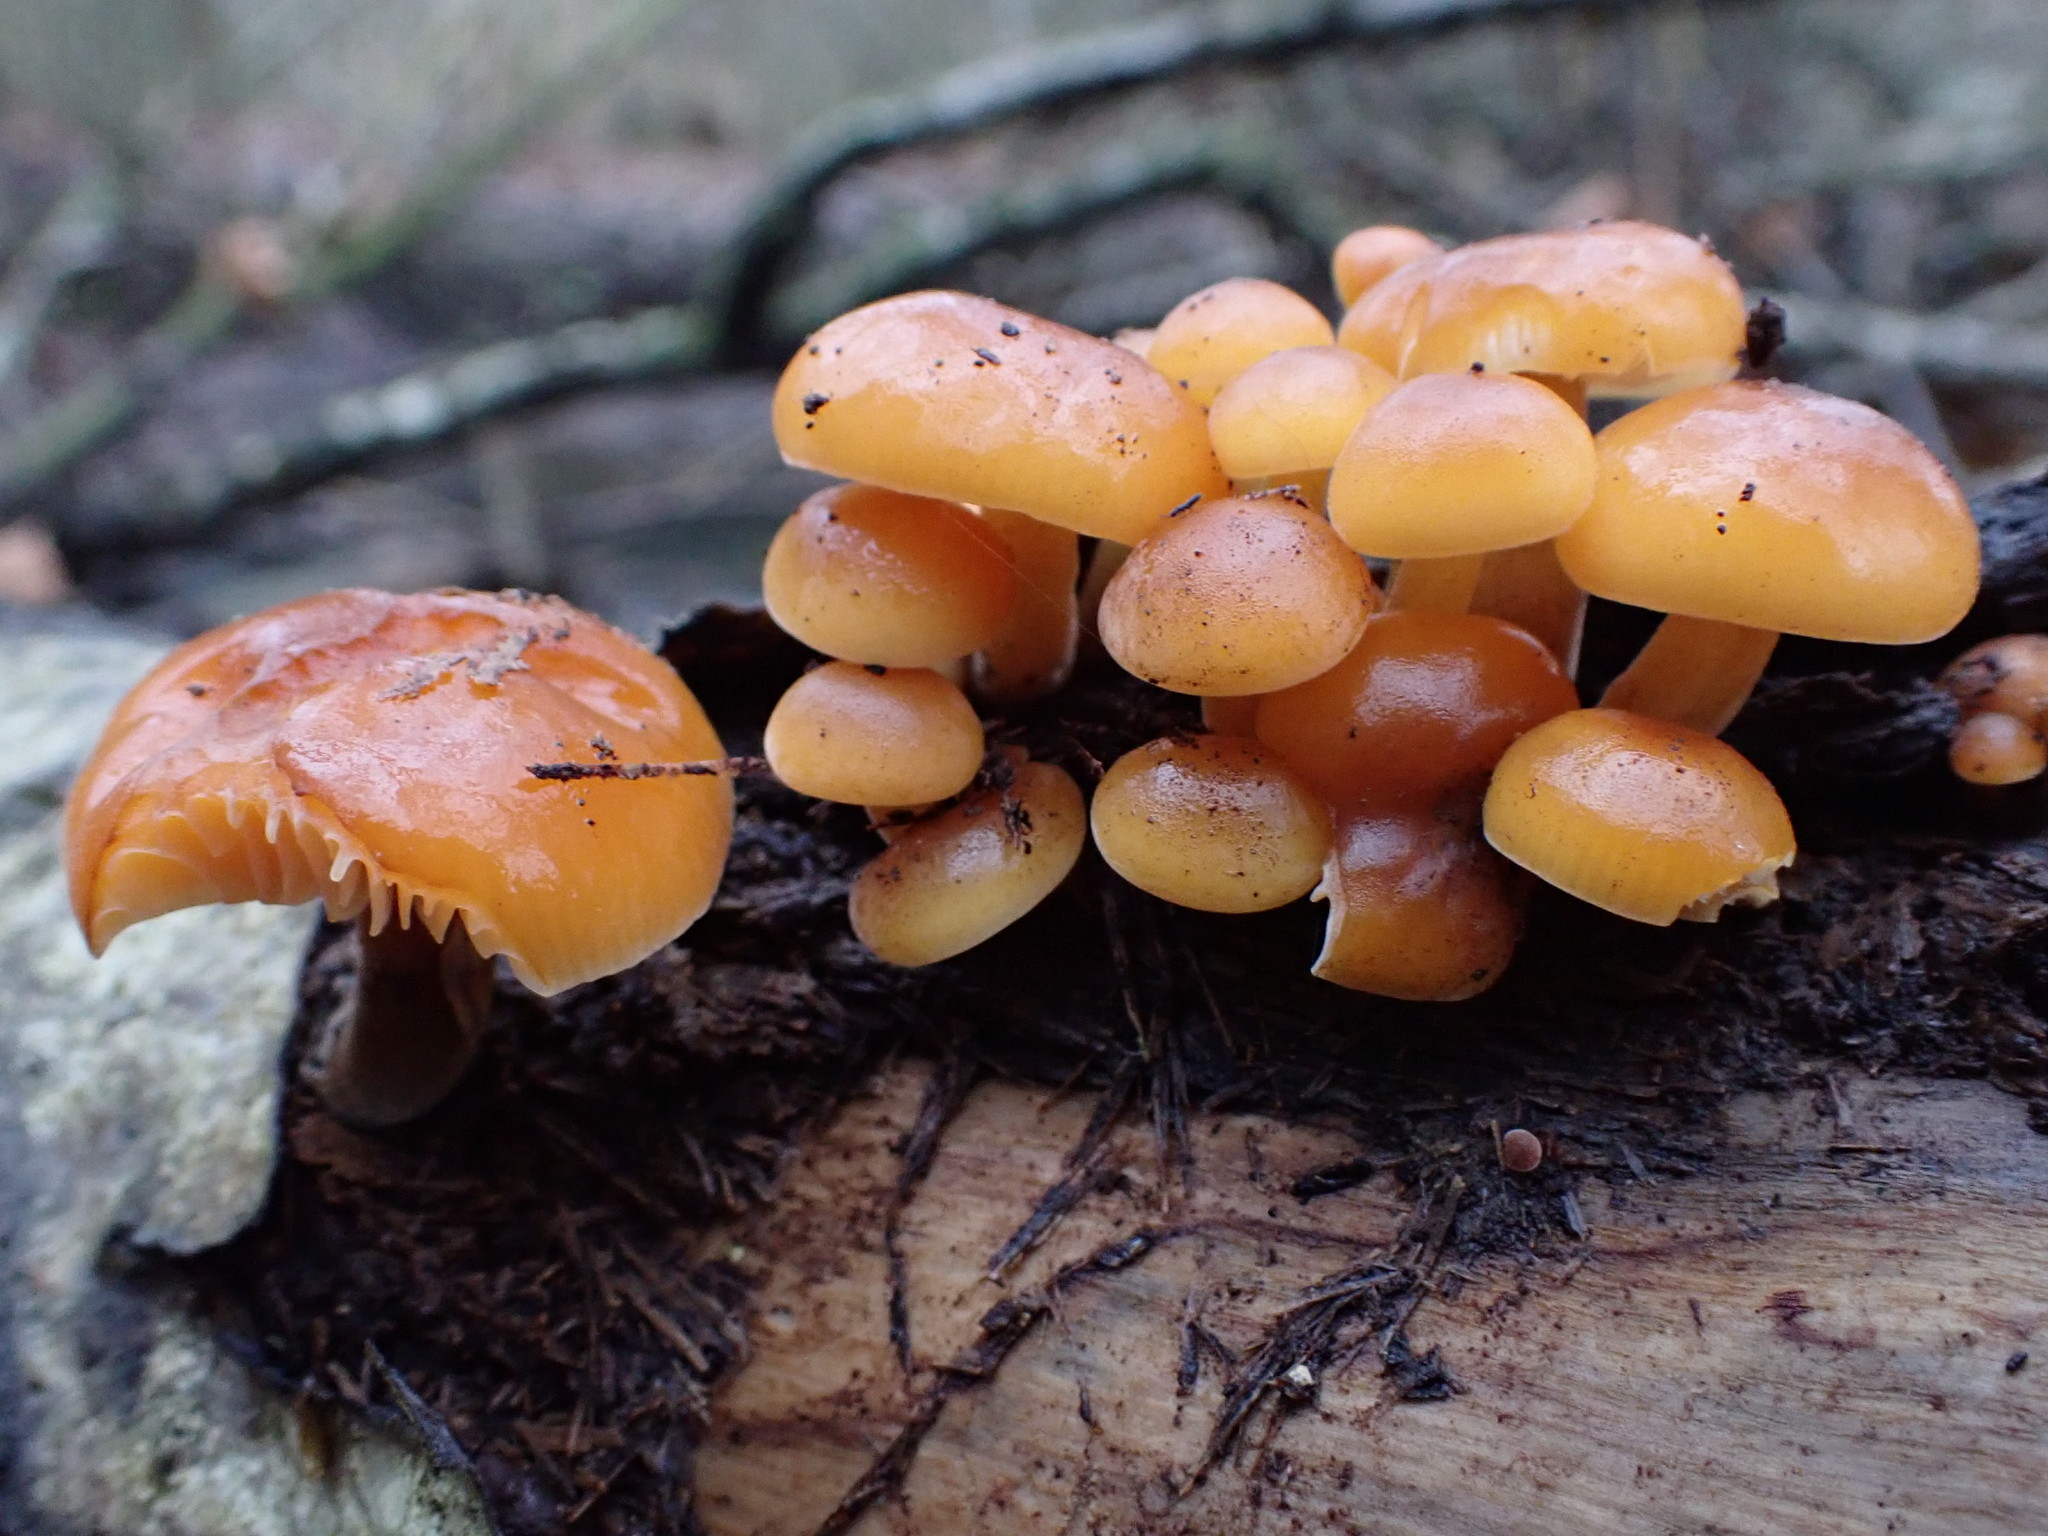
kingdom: Fungi
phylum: Basidiomycota
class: Agaricomycetes
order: Agaricales
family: Physalacriaceae
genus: Flammulina
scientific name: Flammulina
